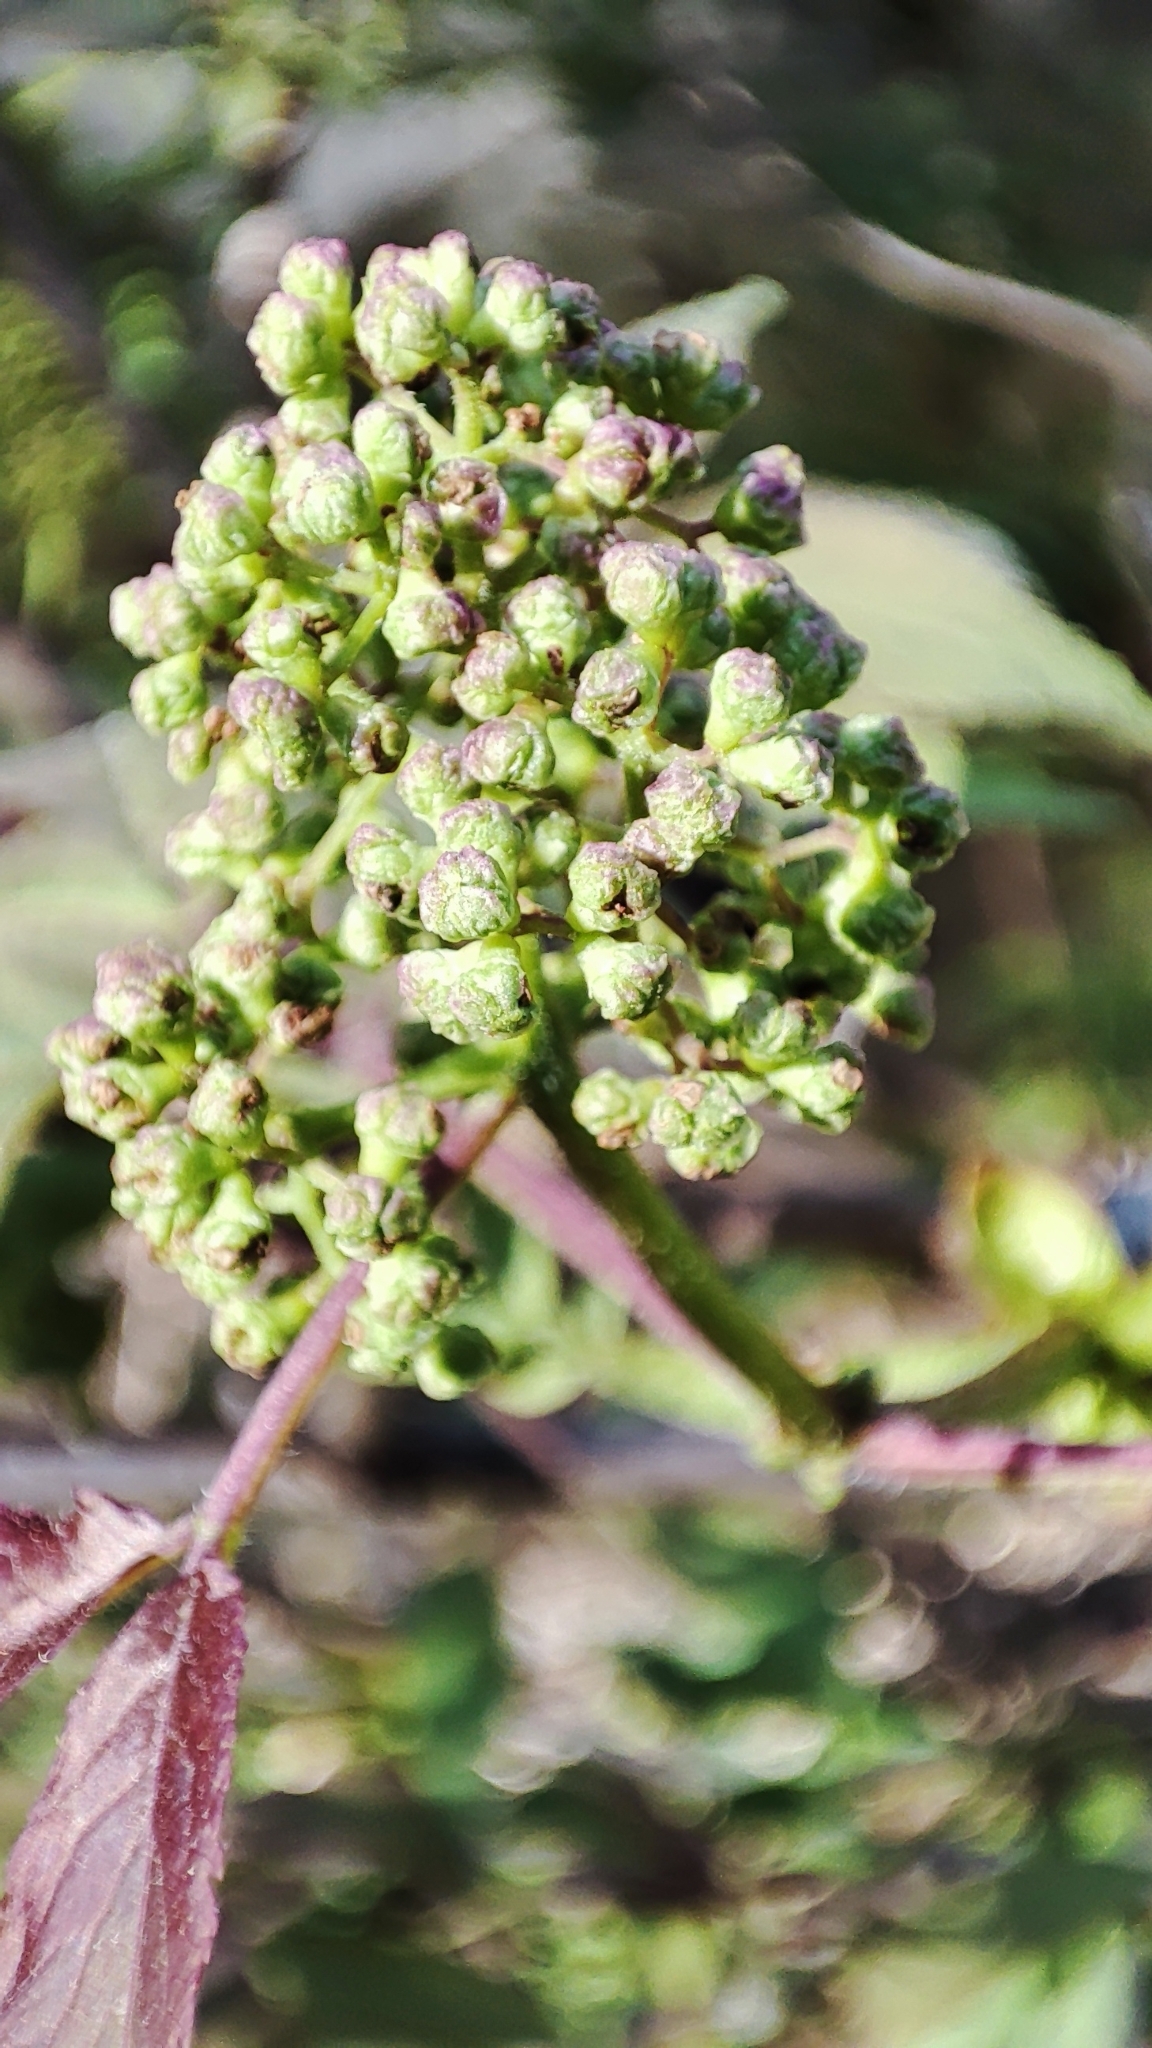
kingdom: Plantae
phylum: Tracheophyta
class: Magnoliopsida
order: Dipsacales
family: Viburnaceae
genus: Sambucus
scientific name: Sambucus sibirica
